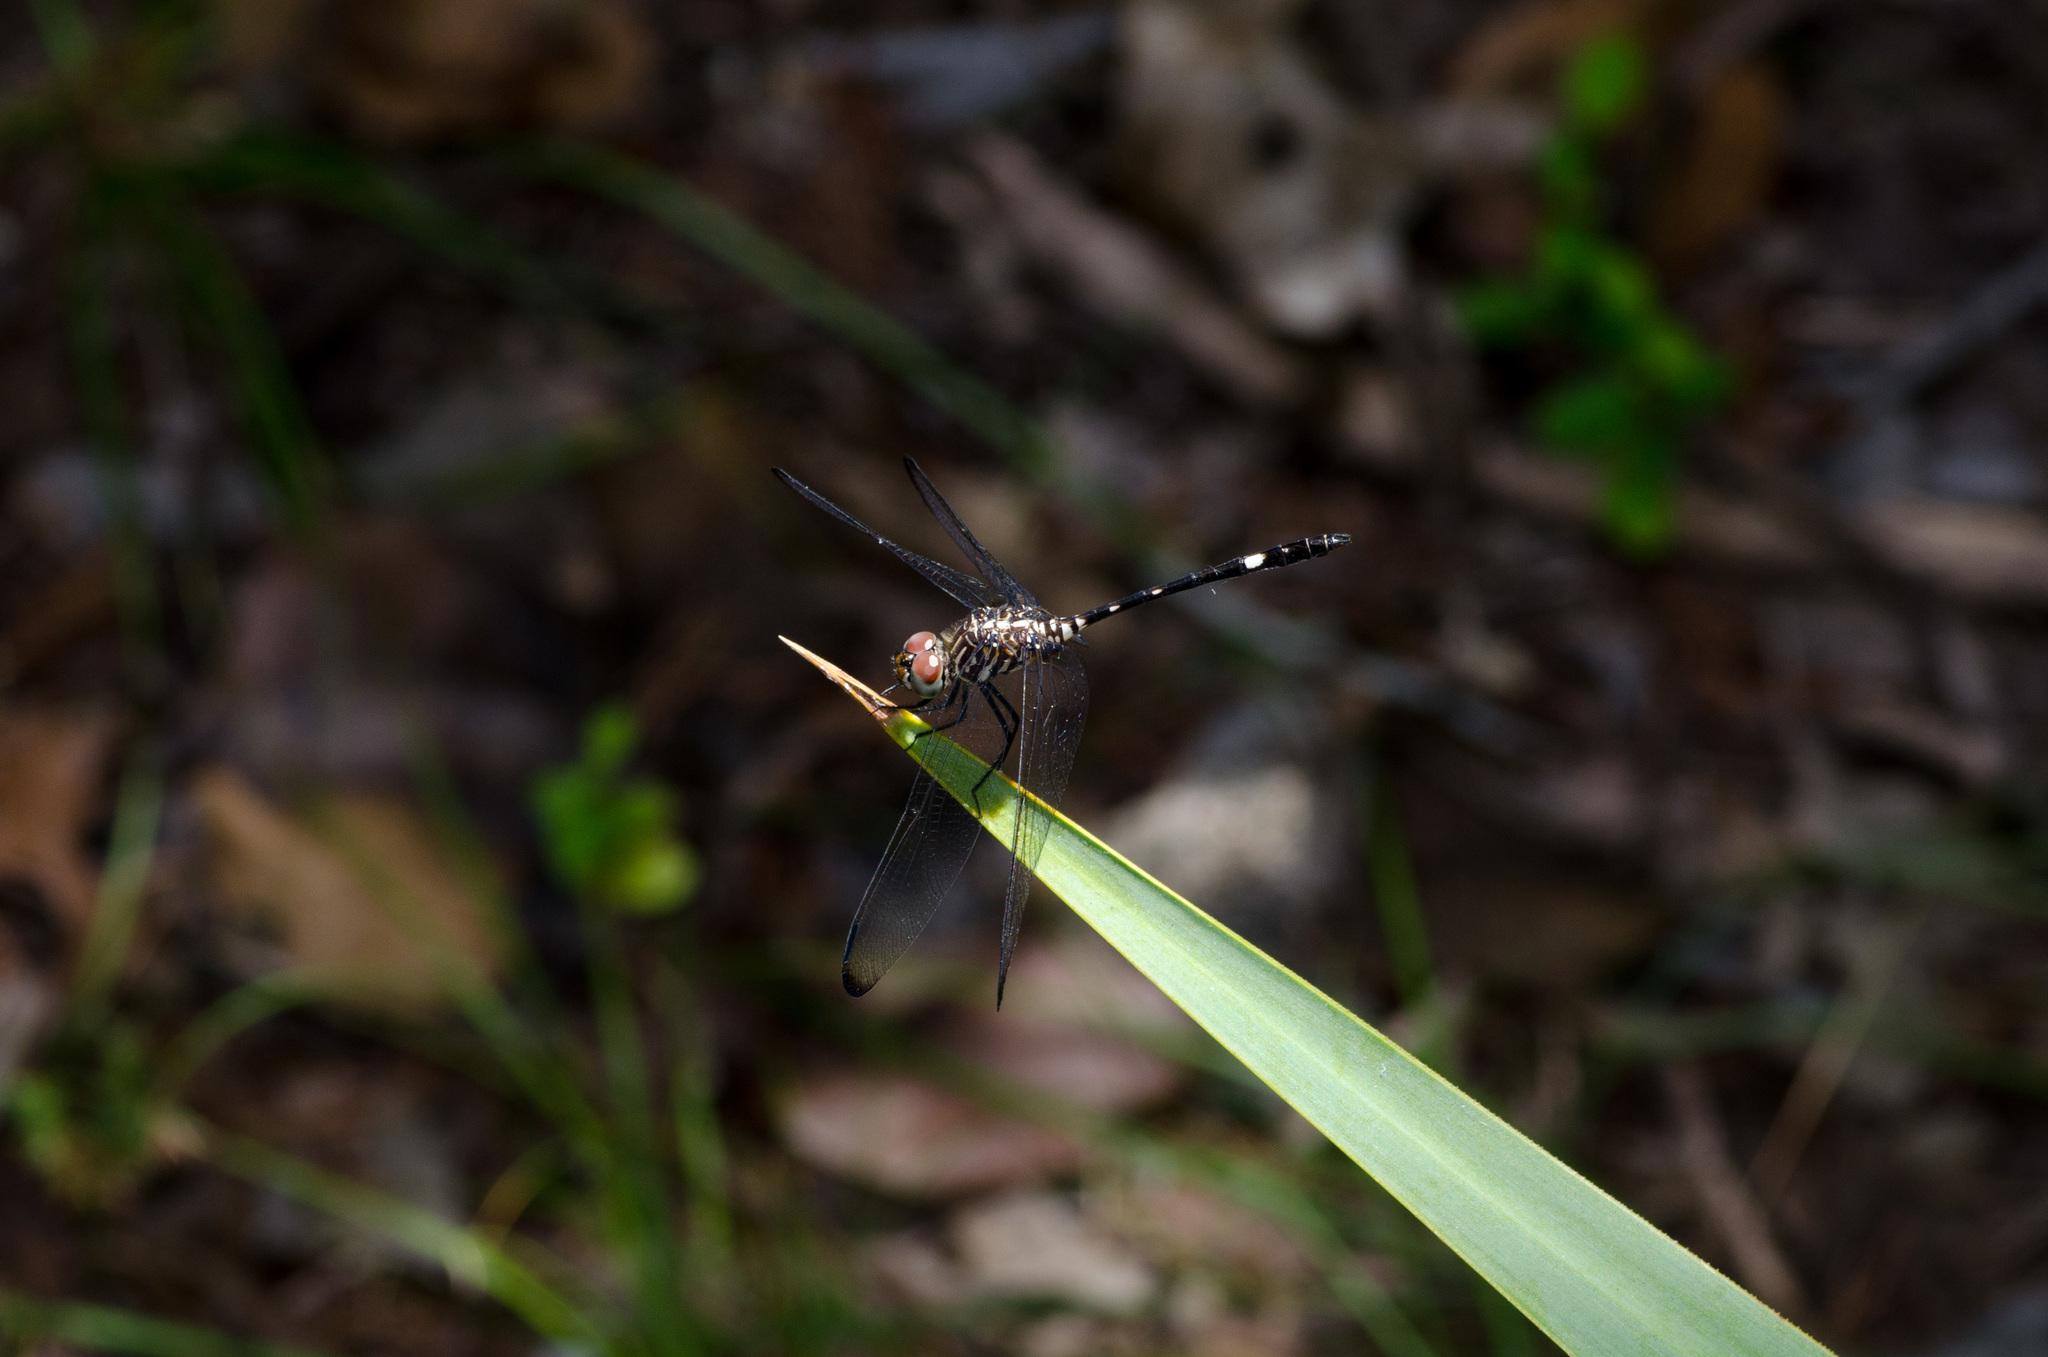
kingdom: Animalia
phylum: Arthropoda
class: Insecta
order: Odonata
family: Libellulidae
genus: Dythemis
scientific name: Dythemis velox
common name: Swift setwing
